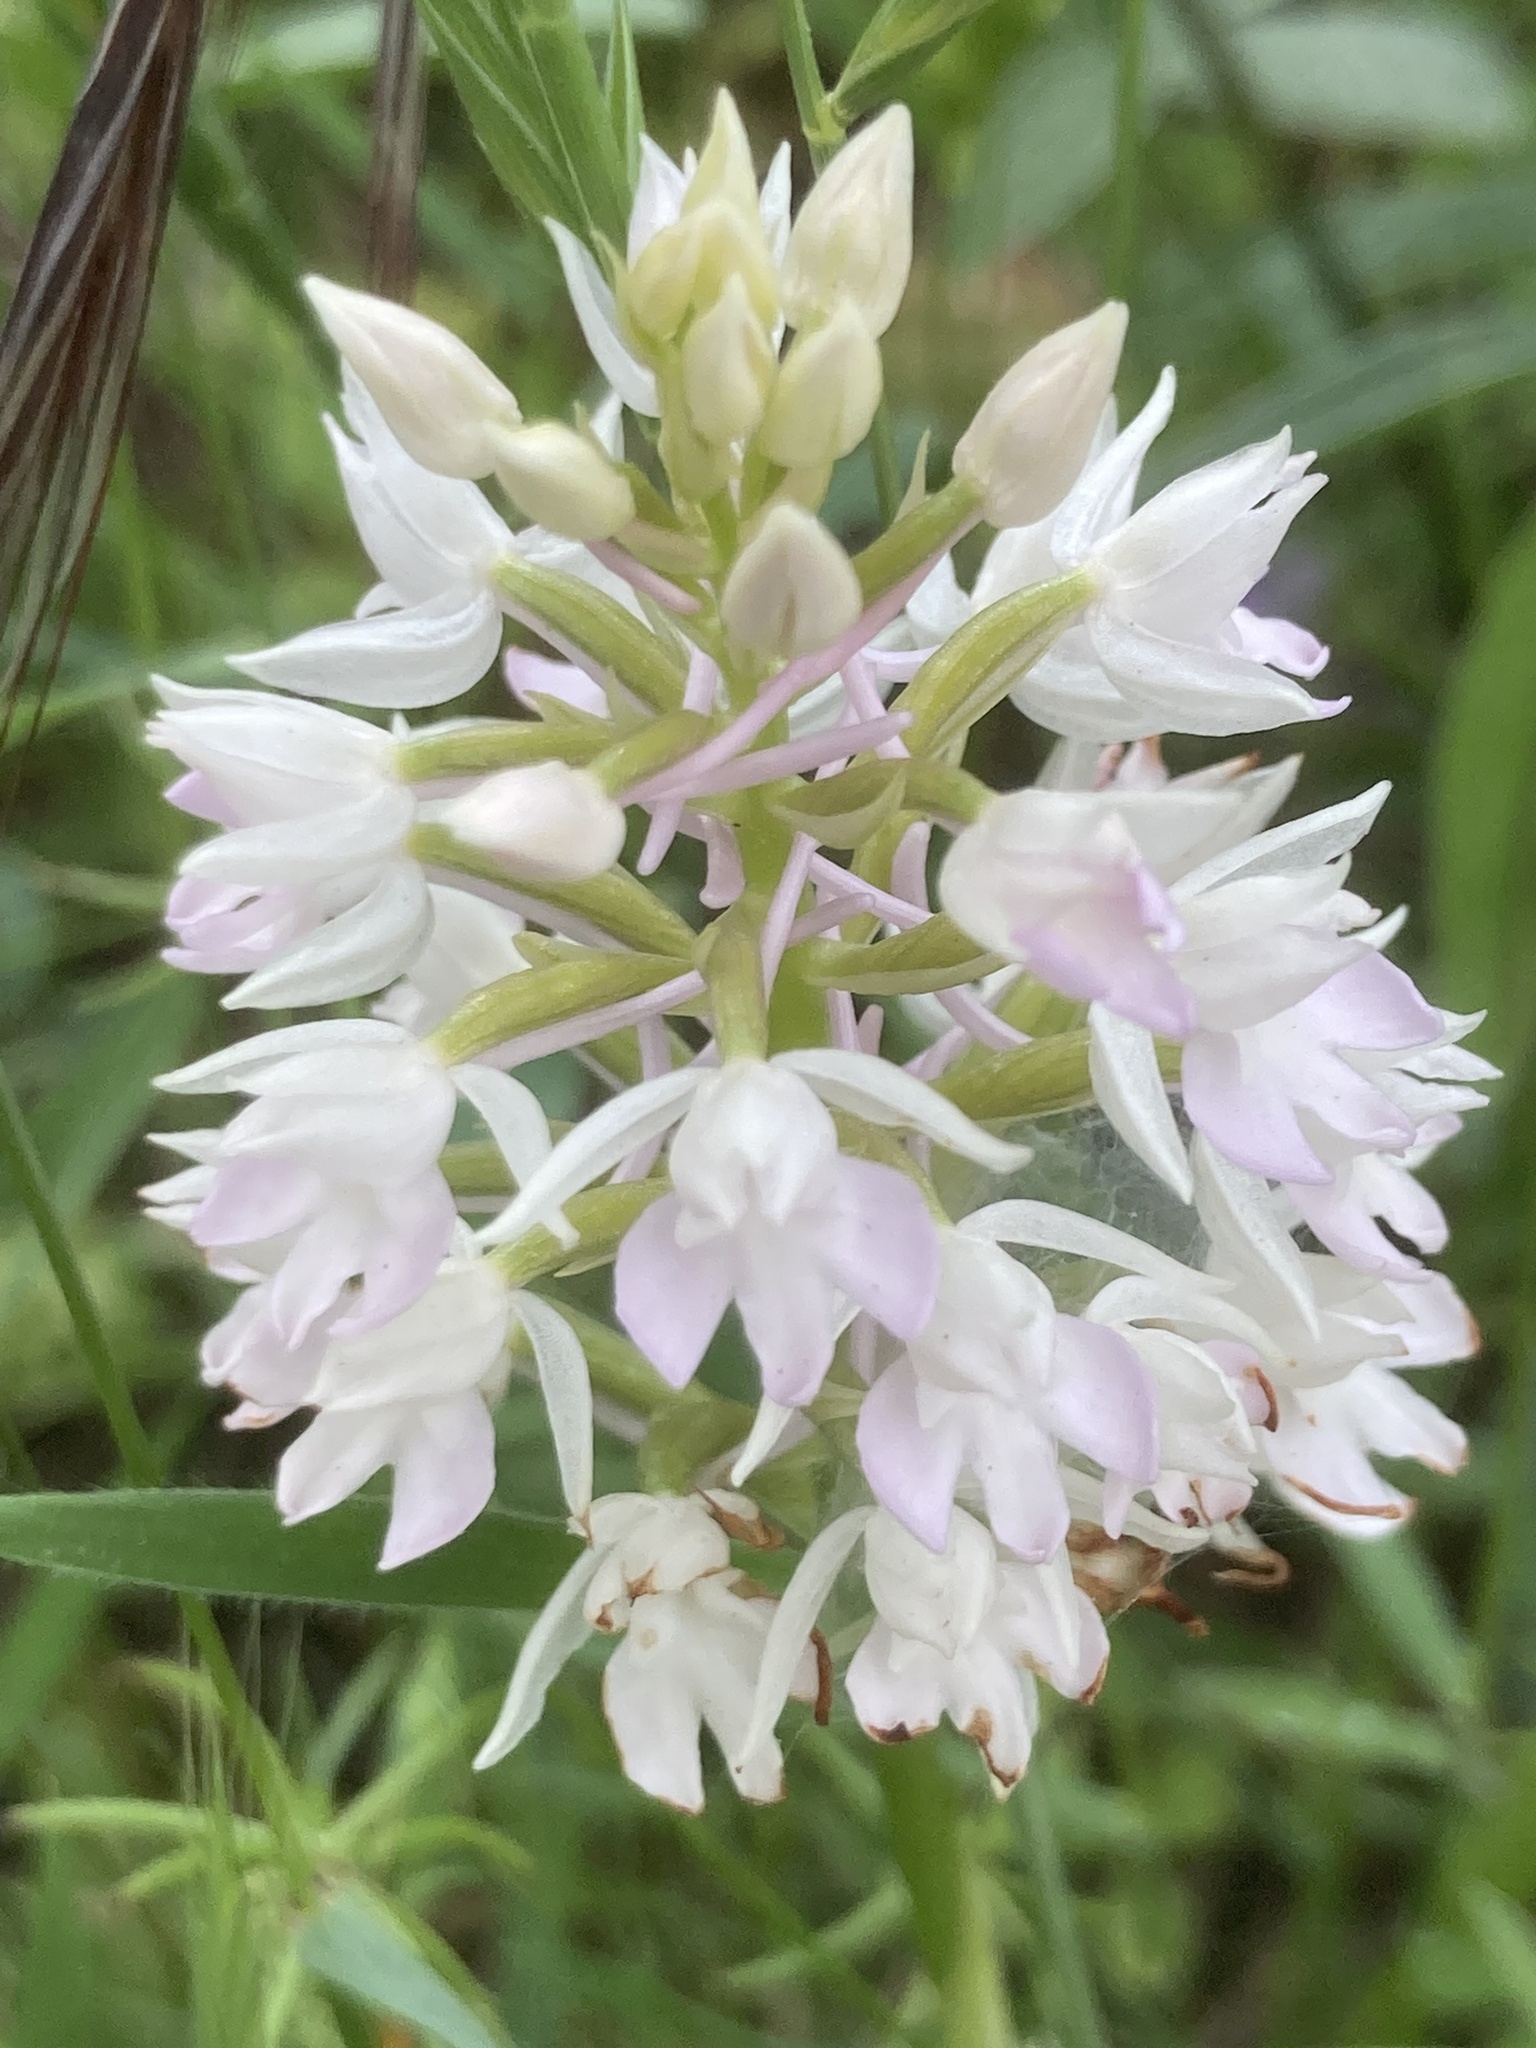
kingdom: Plantae
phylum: Tracheophyta
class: Liliopsida
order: Asparagales
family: Orchidaceae
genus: Anacamptis
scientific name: Anacamptis pyramidalis
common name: Pyramidal orchid
